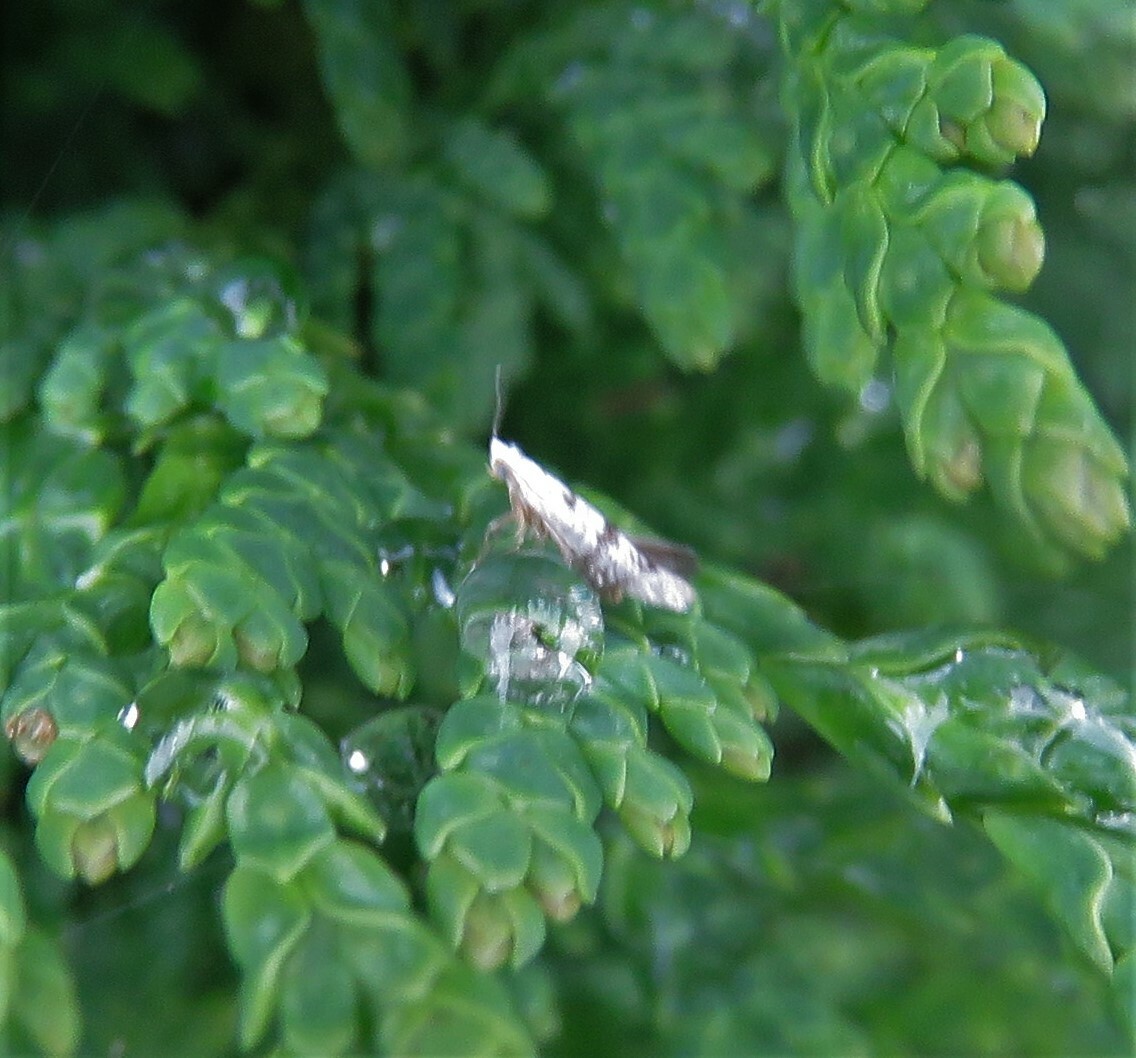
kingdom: Animalia
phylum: Arthropoda
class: Insecta
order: Lepidoptera
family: Argyresthiidae
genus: Argyresthia
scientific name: Argyresthia thuiella
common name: Arborvitae leafminer
